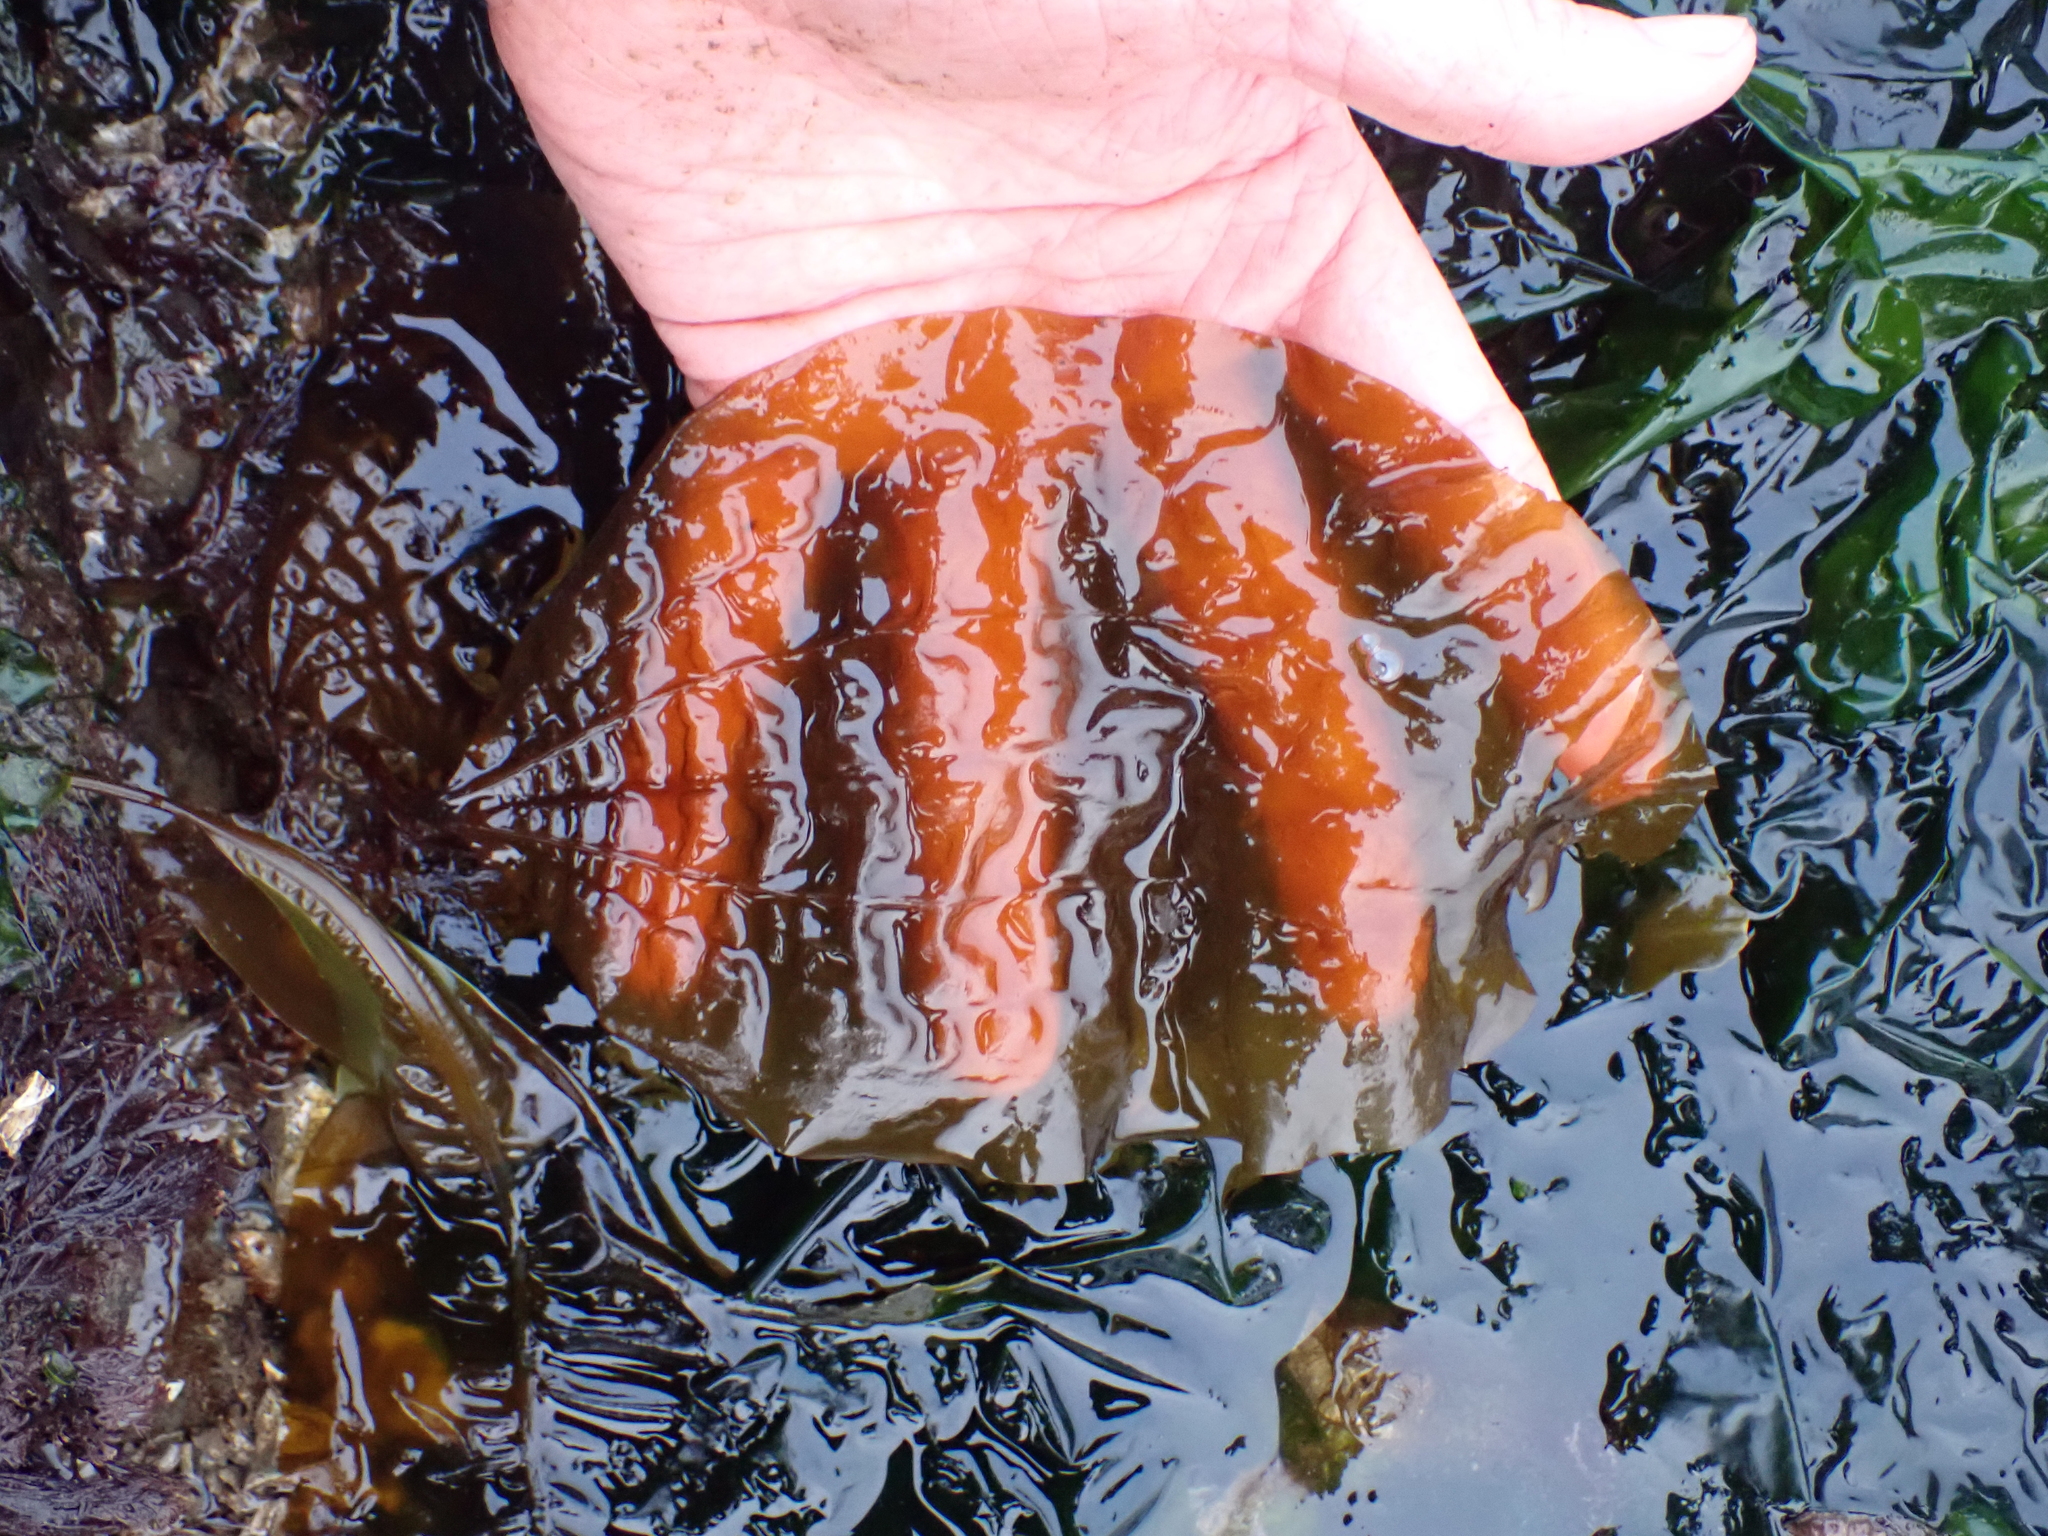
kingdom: Chromista
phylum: Ochrophyta
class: Phaeophyceae
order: Laminariales
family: Costariaceae
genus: Costaria
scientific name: Costaria costata
